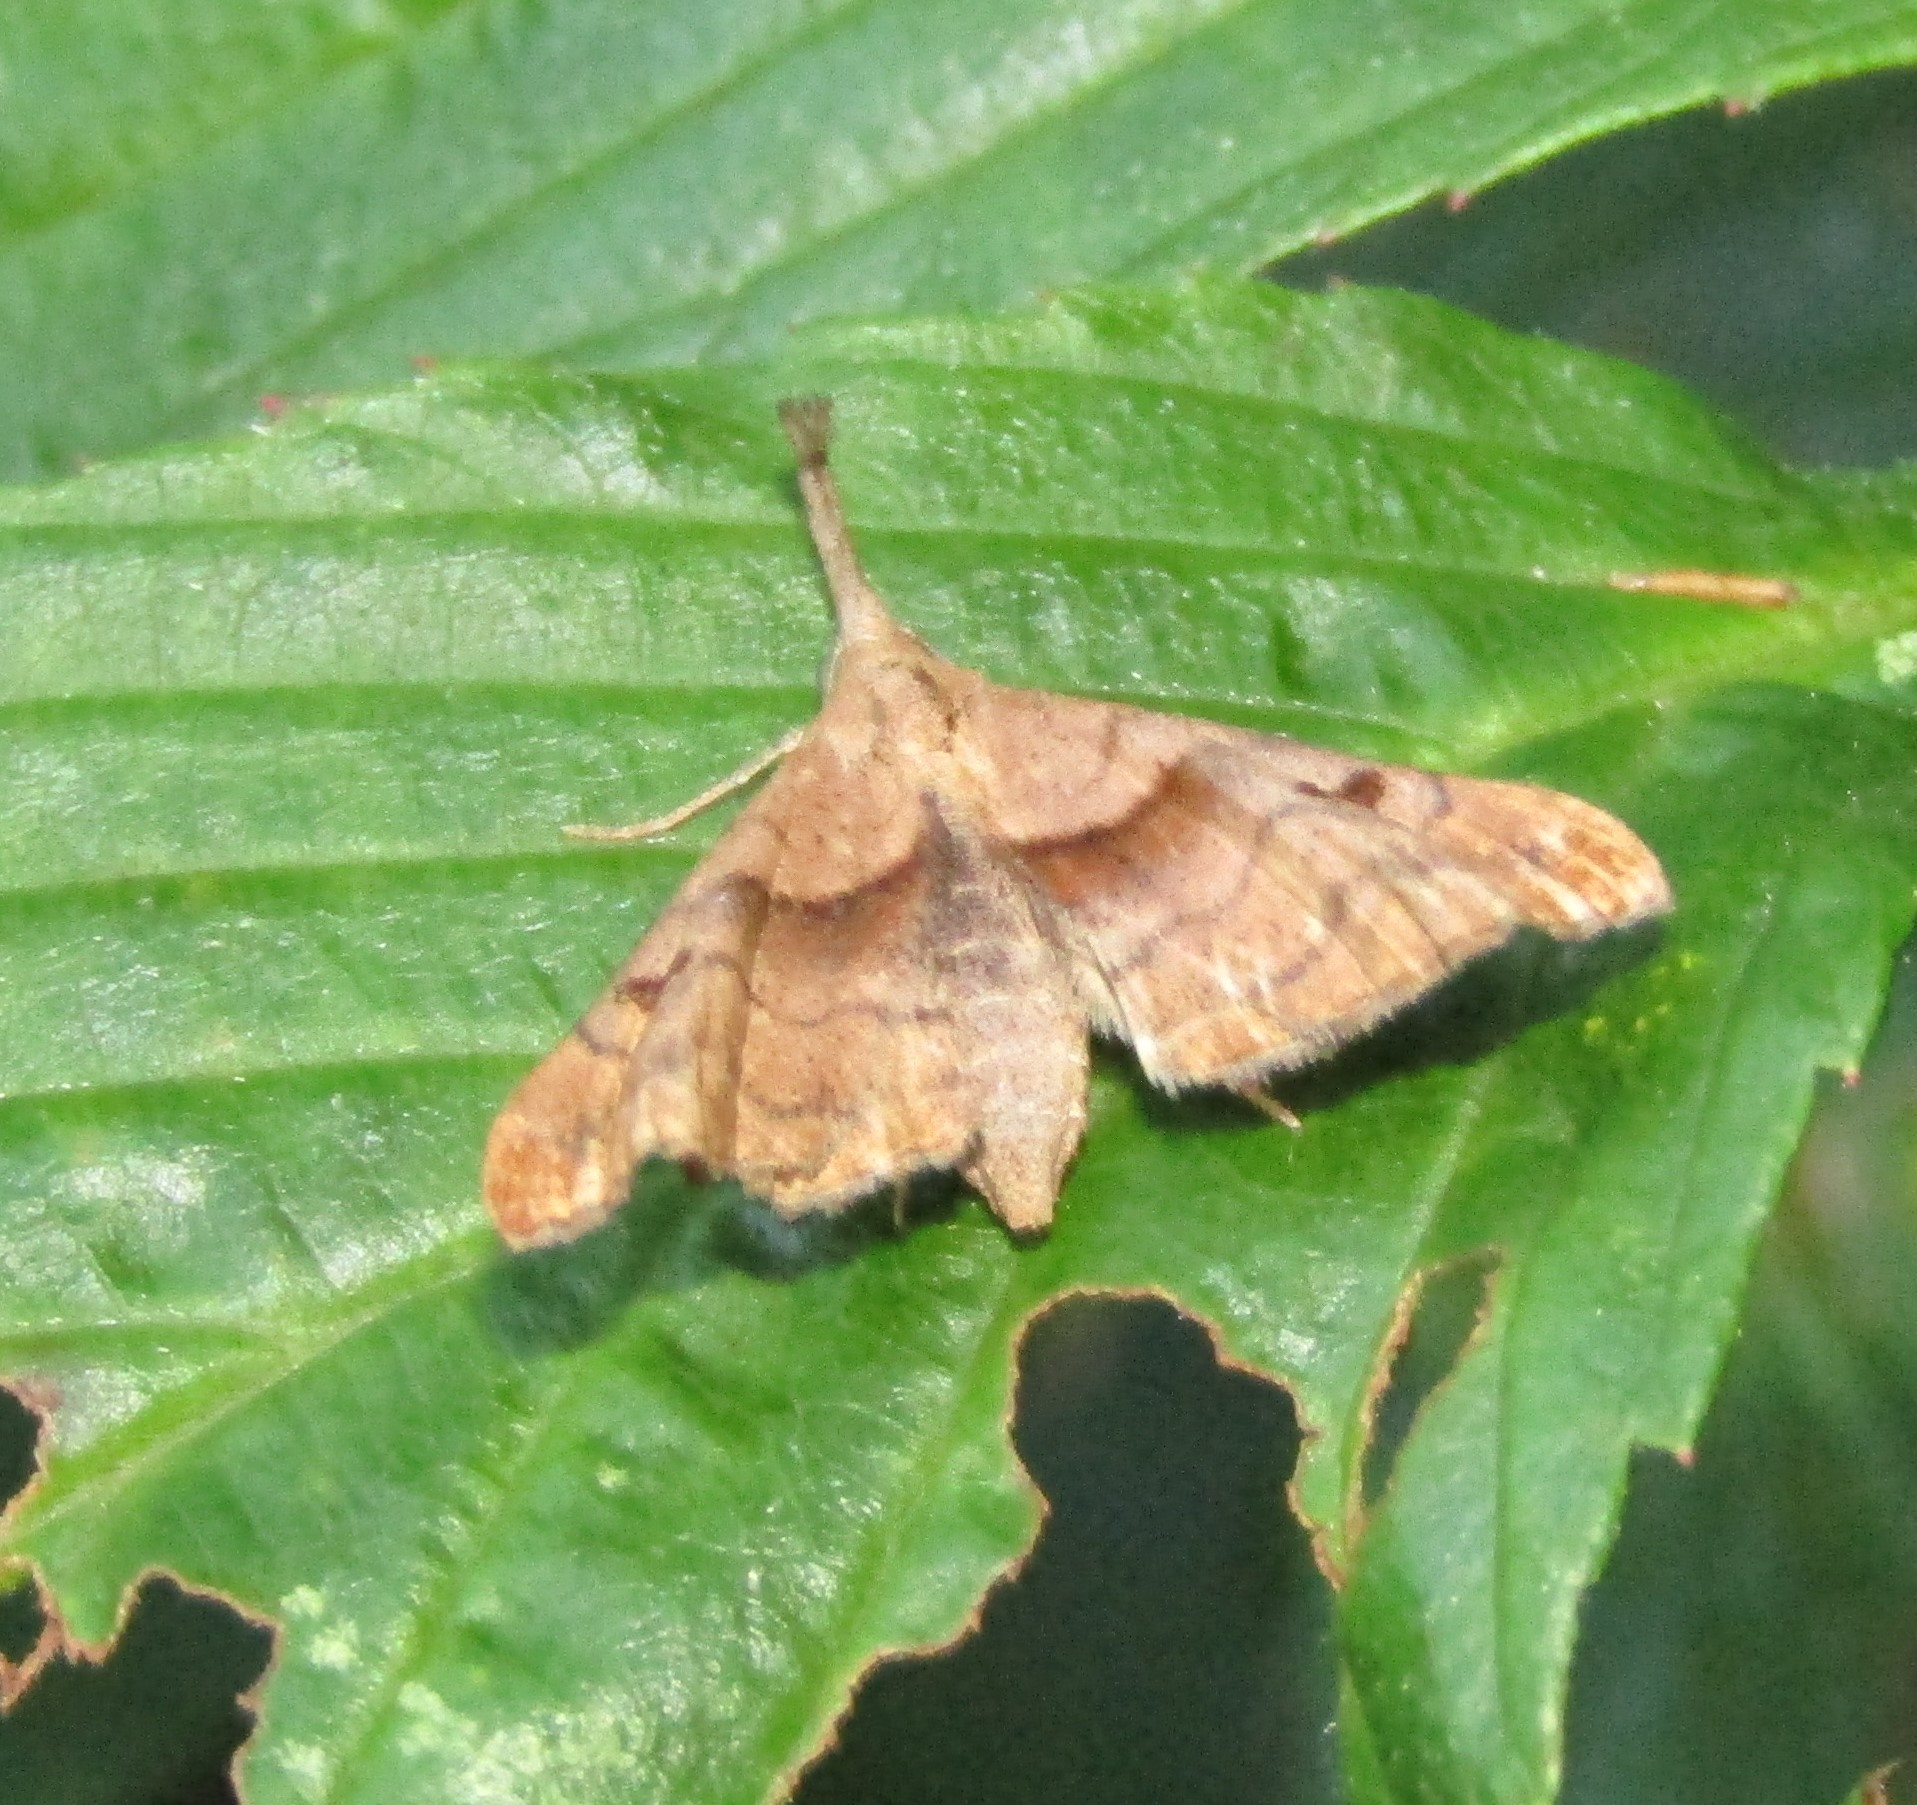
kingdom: Animalia
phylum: Arthropoda
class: Insecta
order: Lepidoptera
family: Erebidae
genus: Palthis
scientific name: Palthis angulalis
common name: Dark-spotted palthis moth
